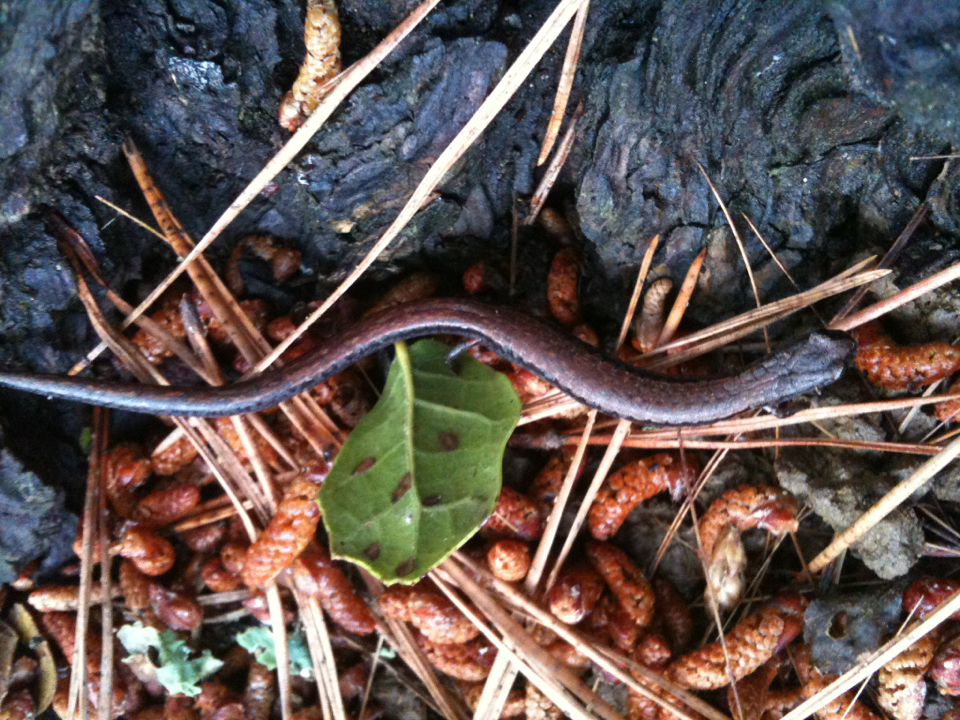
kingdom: Animalia
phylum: Chordata
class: Amphibia
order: Caudata
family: Plethodontidae
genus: Batrachoseps
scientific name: Batrachoseps attenuatus
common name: California slender salamander
